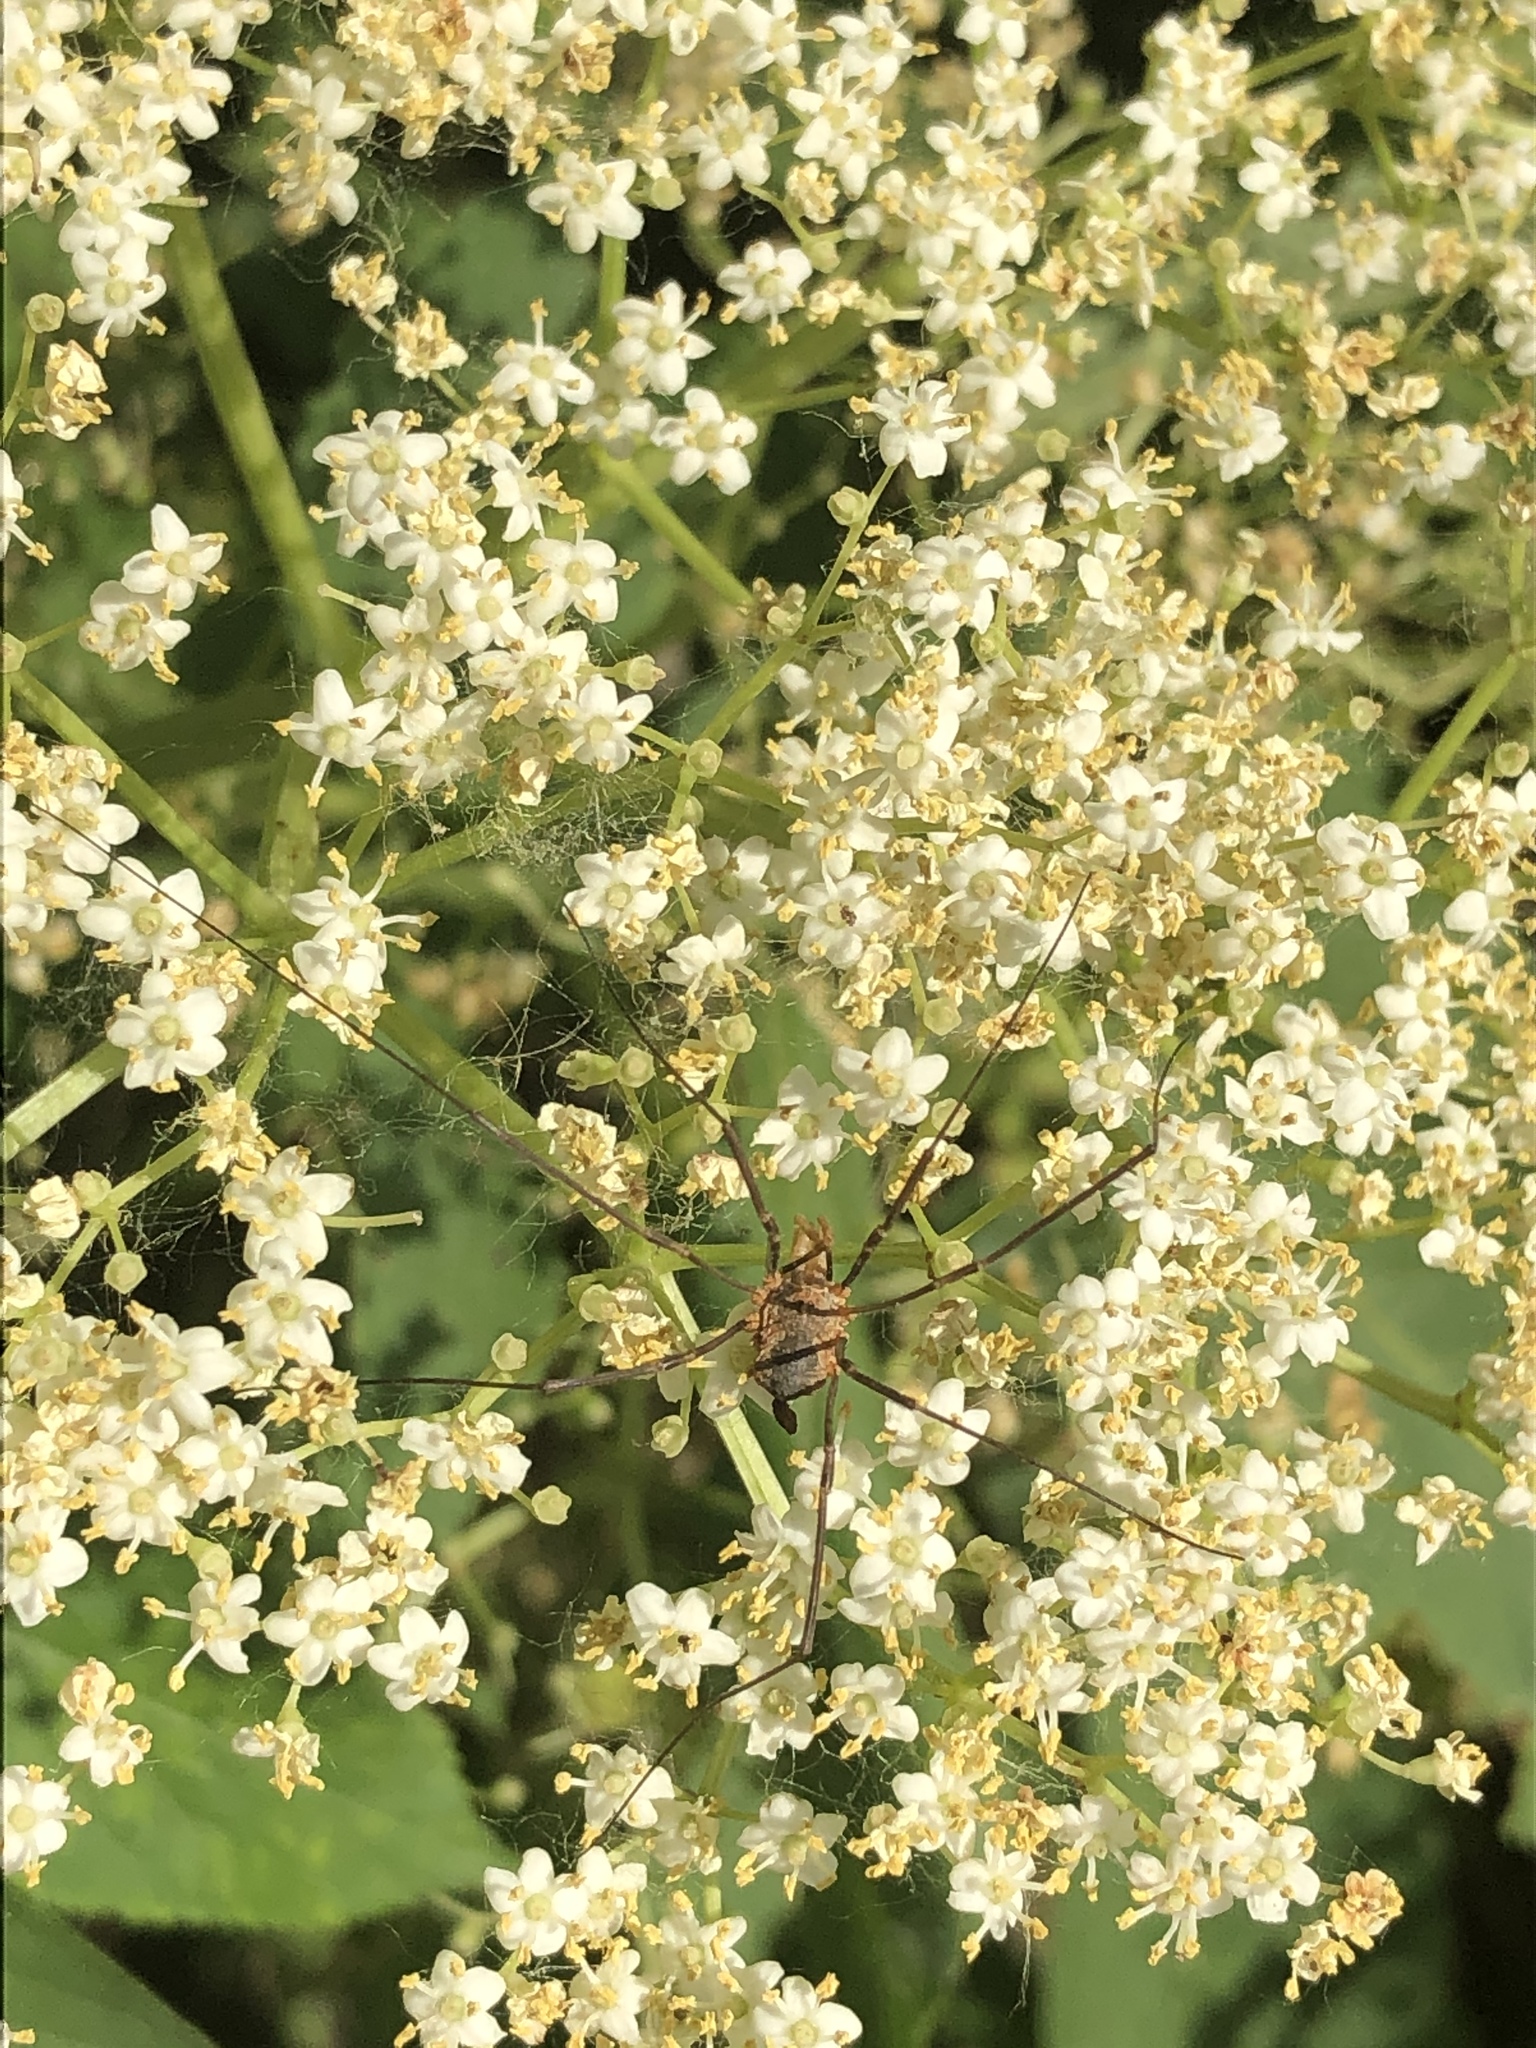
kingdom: Animalia
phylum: Arthropoda
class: Arachnida
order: Opiliones
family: Phalangiidae
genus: Phalangium
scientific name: Phalangium opilio
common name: Daddy longleg
